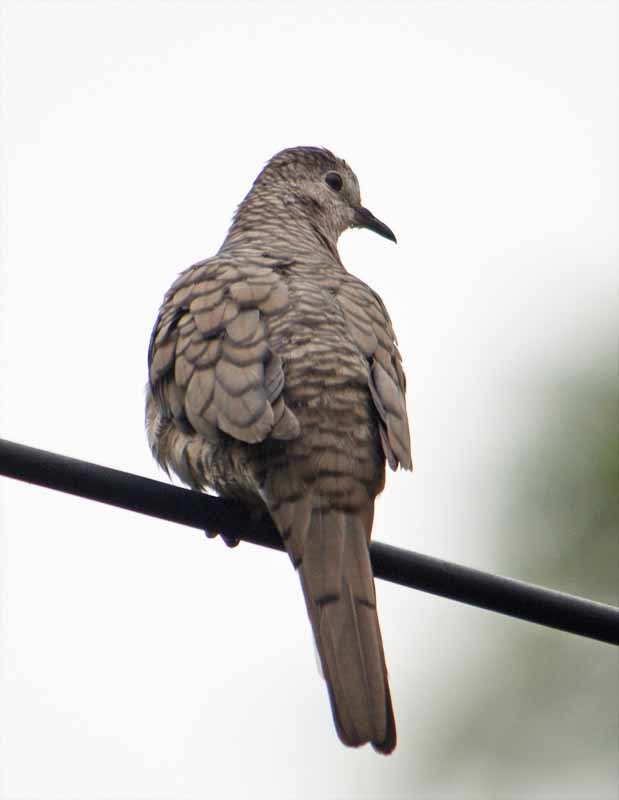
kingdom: Animalia
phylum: Chordata
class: Aves
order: Columbiformes
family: Columbidae
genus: Columbina
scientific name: Columbina inca
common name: Inca dove
